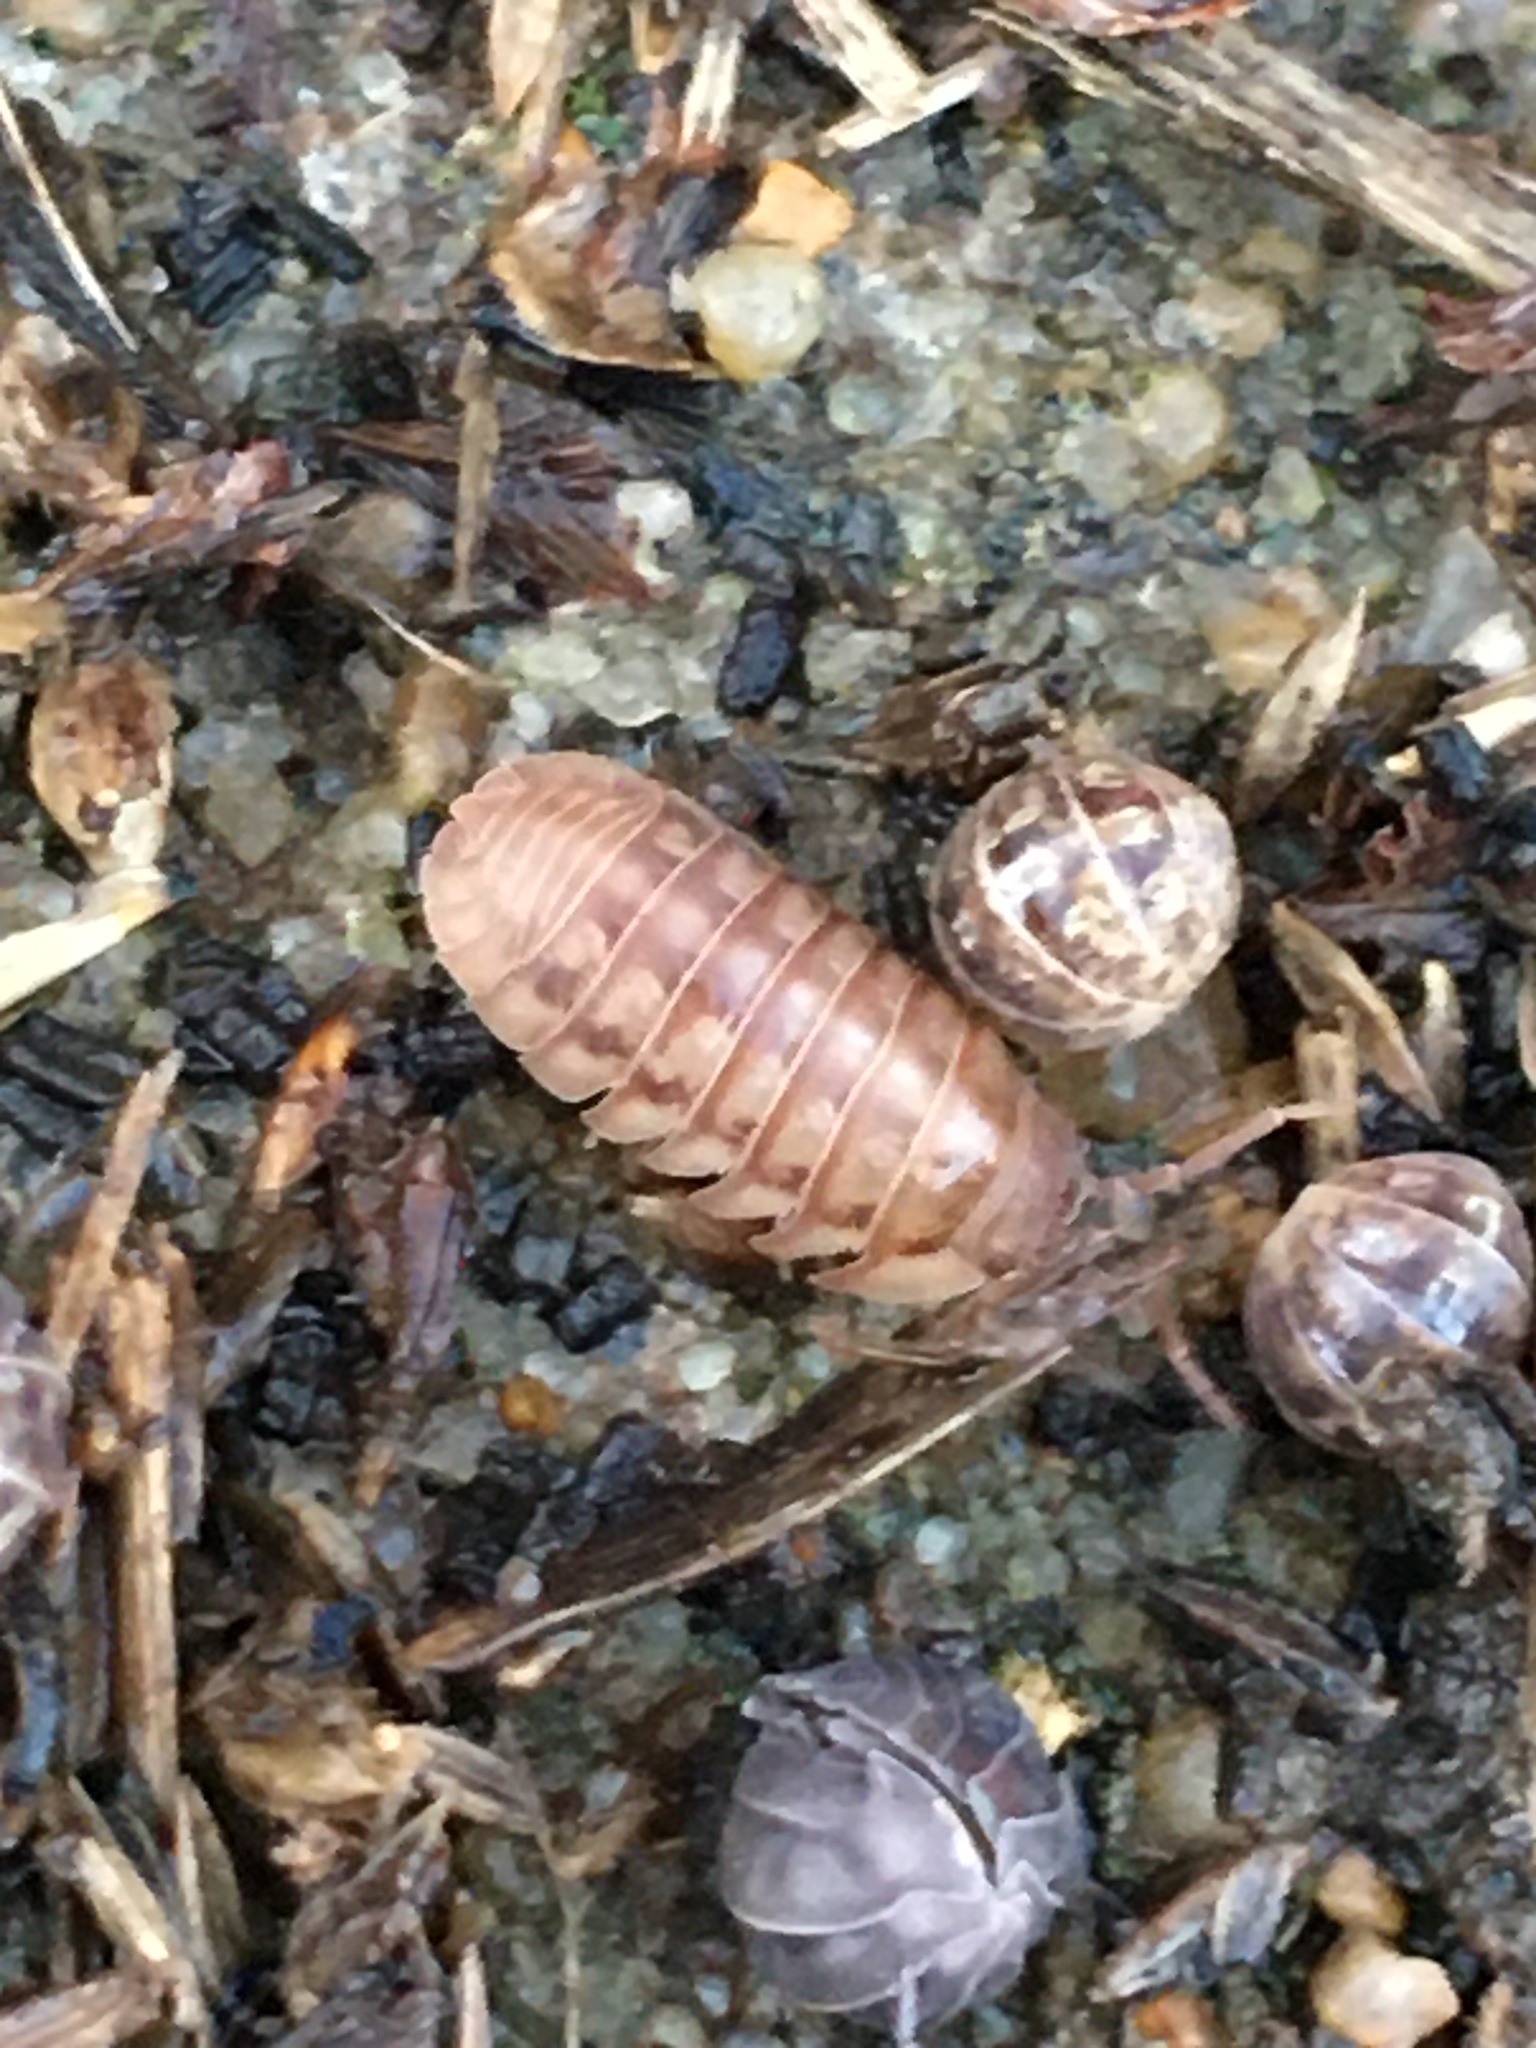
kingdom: Animalia
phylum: Arthropoda
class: Malacostraca
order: Isopoda
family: Armadillidiidae
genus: Armadillidium
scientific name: Armadillidium nasatum
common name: Isopod
